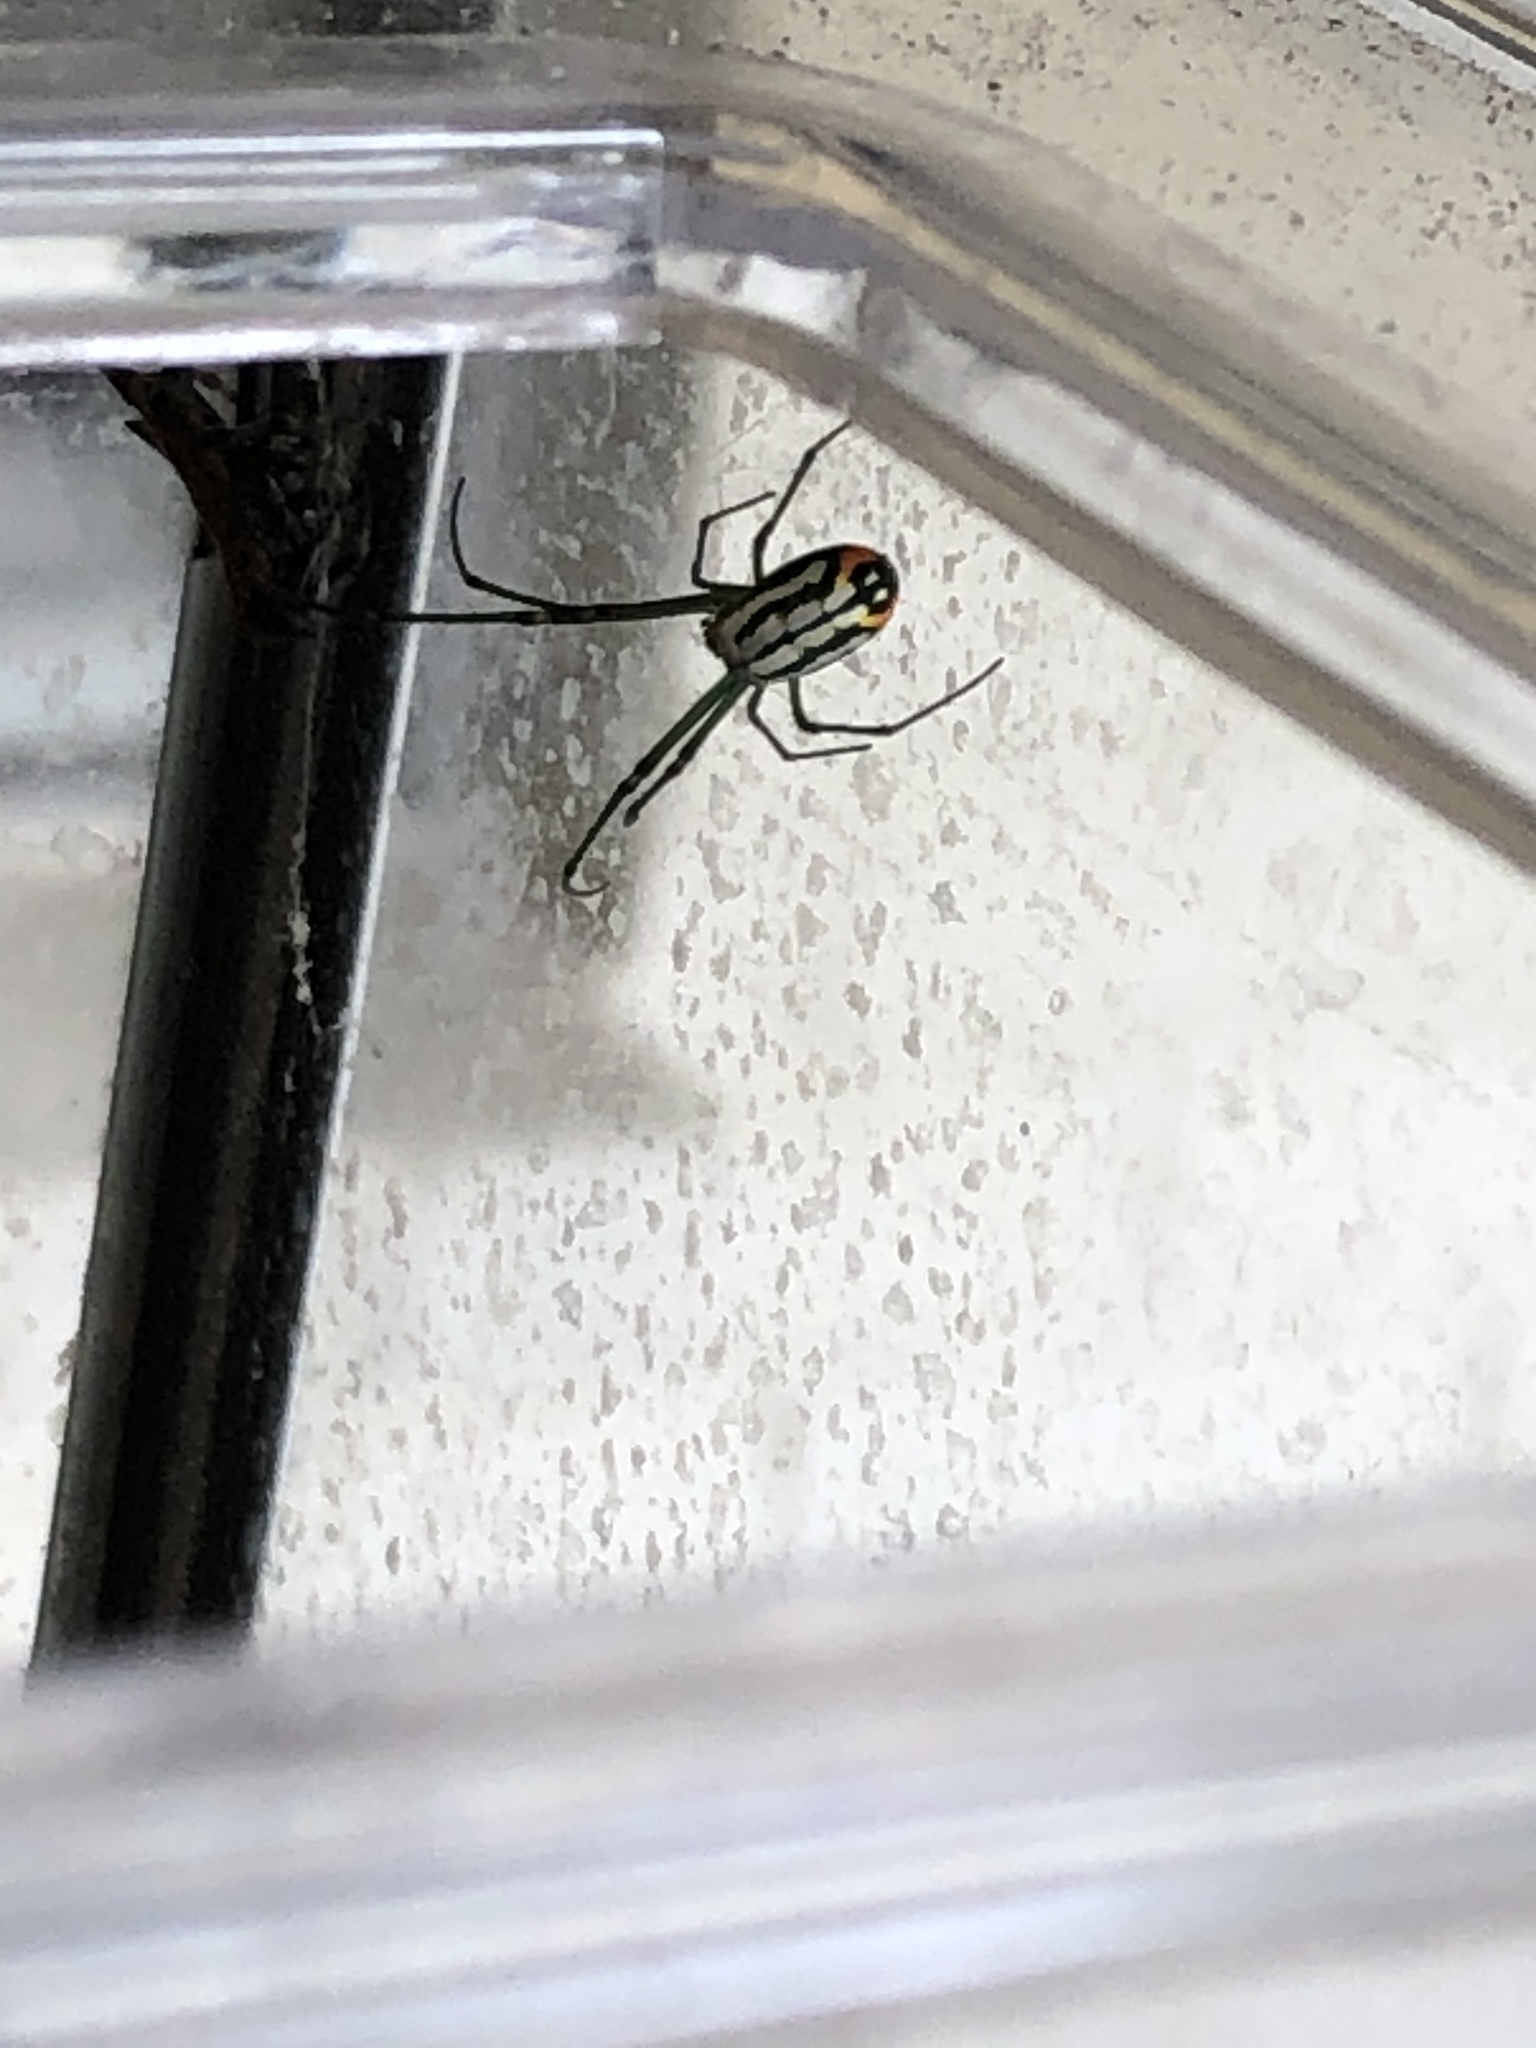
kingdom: Animalia
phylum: Arthropoda
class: Arachnida
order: Araneae
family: Tetragnathidae
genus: Leucauge
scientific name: Leucauge argyrobapta
